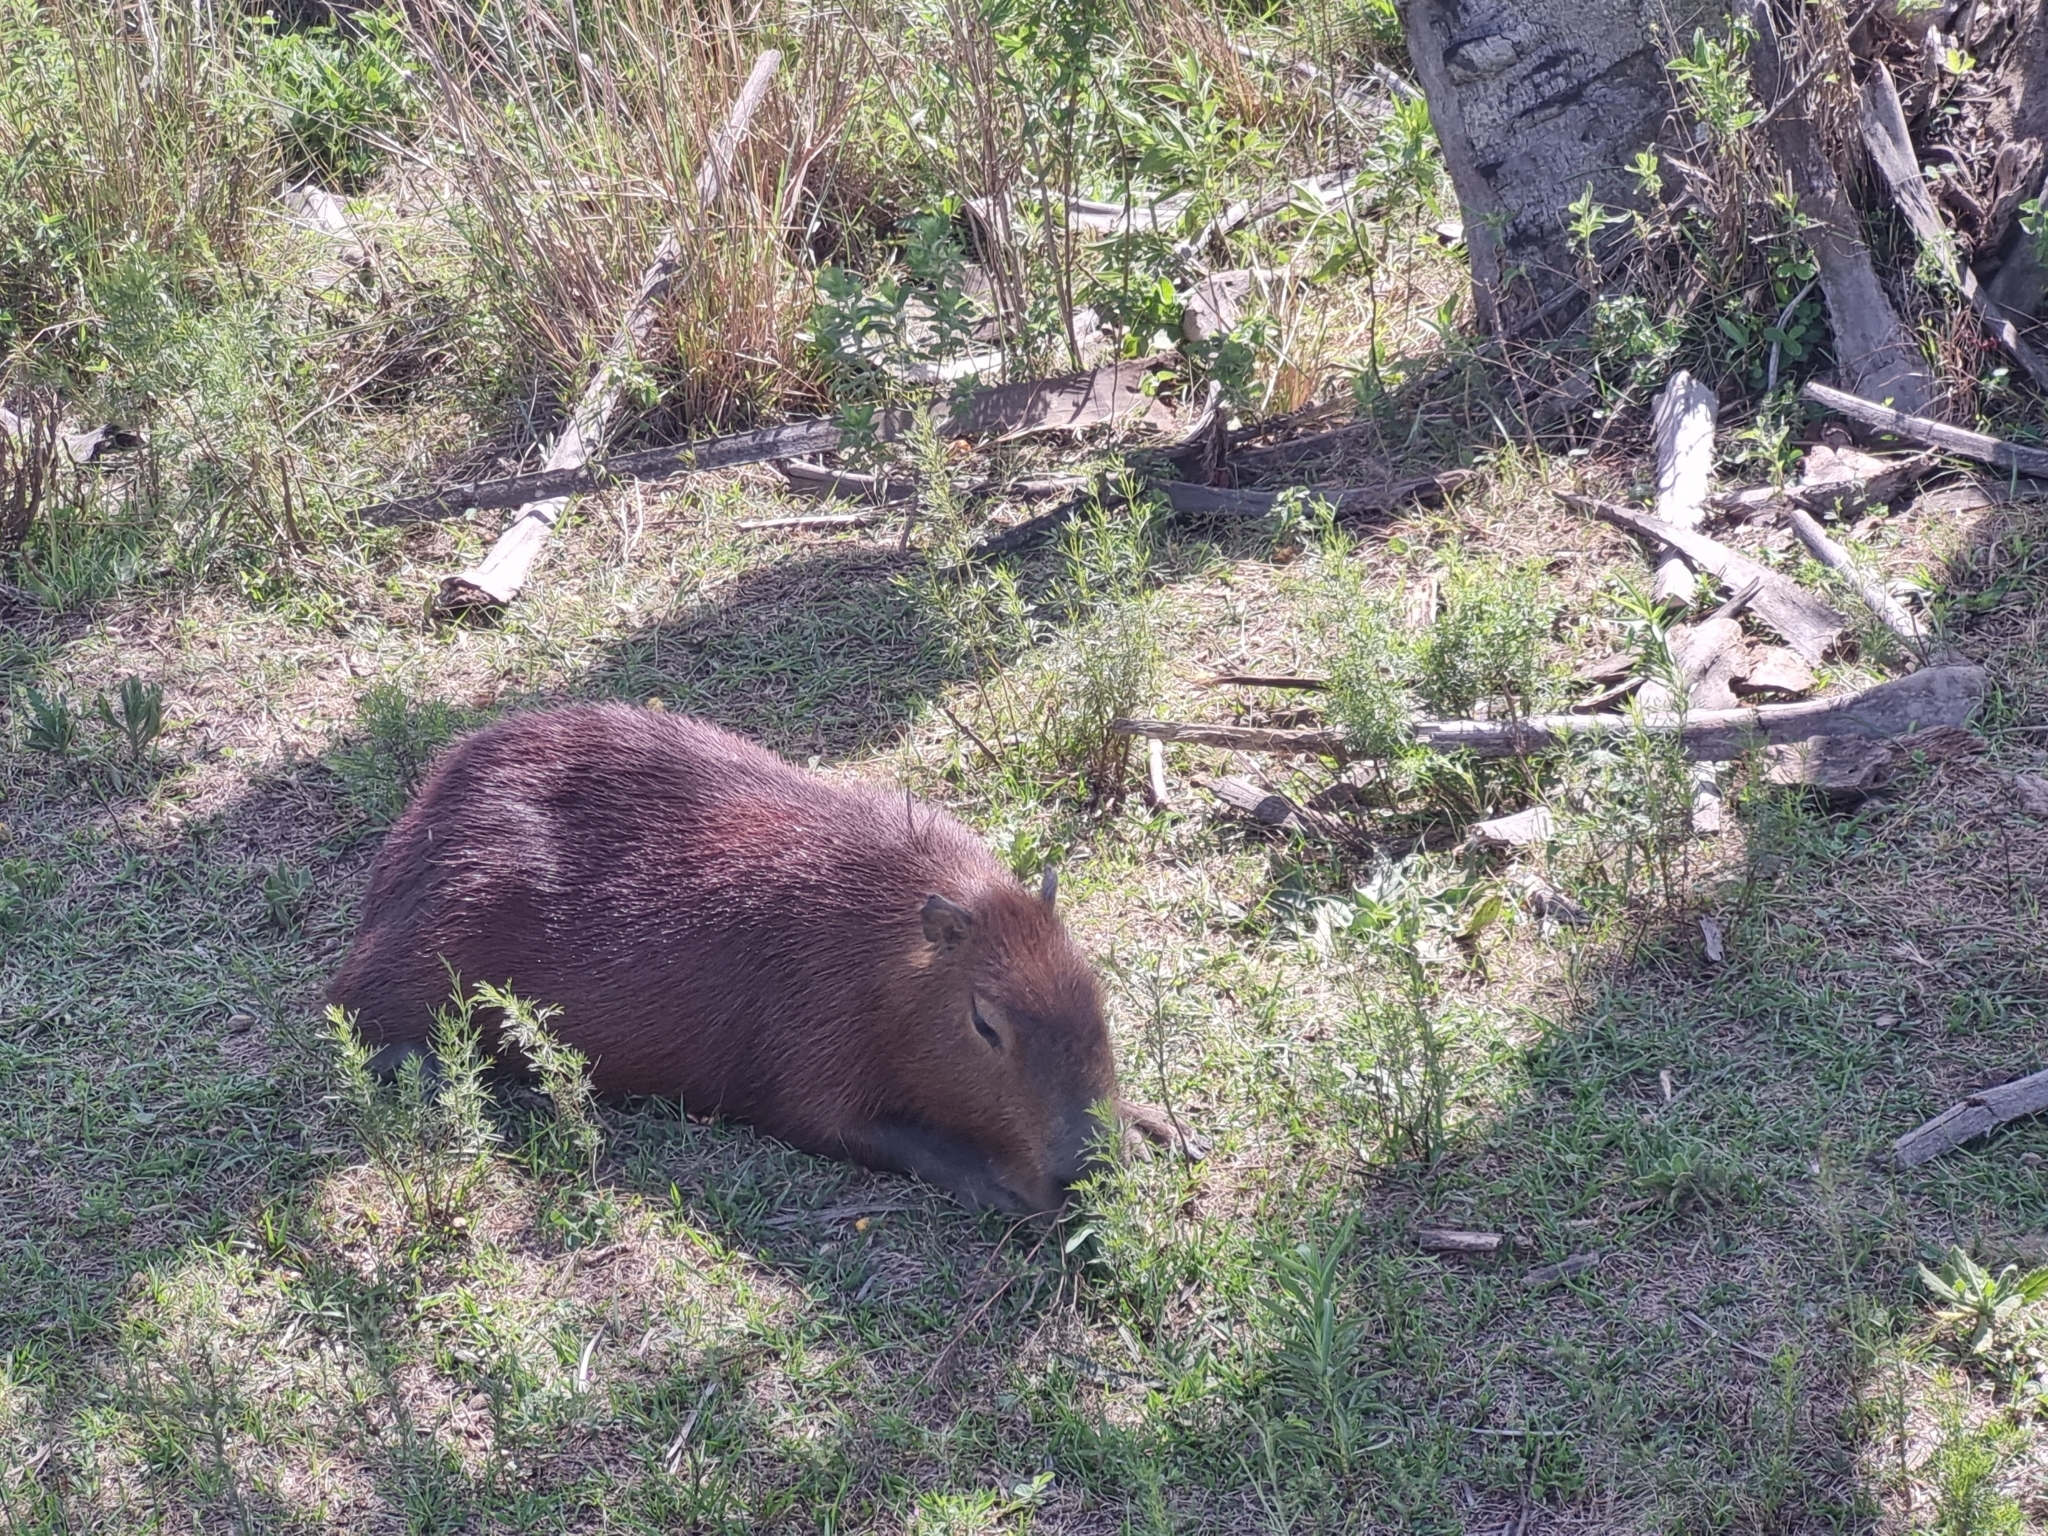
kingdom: Animalia
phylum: Chordata
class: Mammalia
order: Rodentia
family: Caviidae
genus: Hydrochoerus
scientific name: Hydrochoerus hydrochaeris
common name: Capybara
